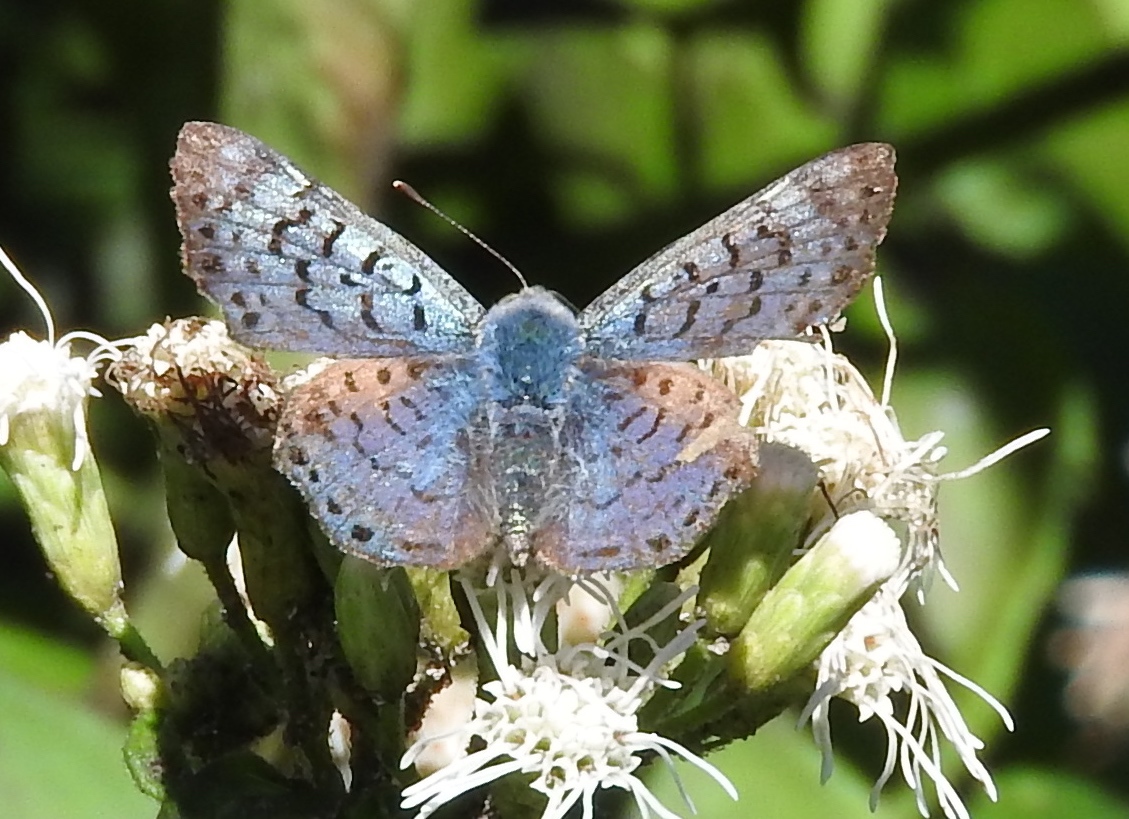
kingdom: Animalia
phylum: Arthropoda
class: Insecta
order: Lepidoptera
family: Riodinidae
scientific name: Riodinidae
